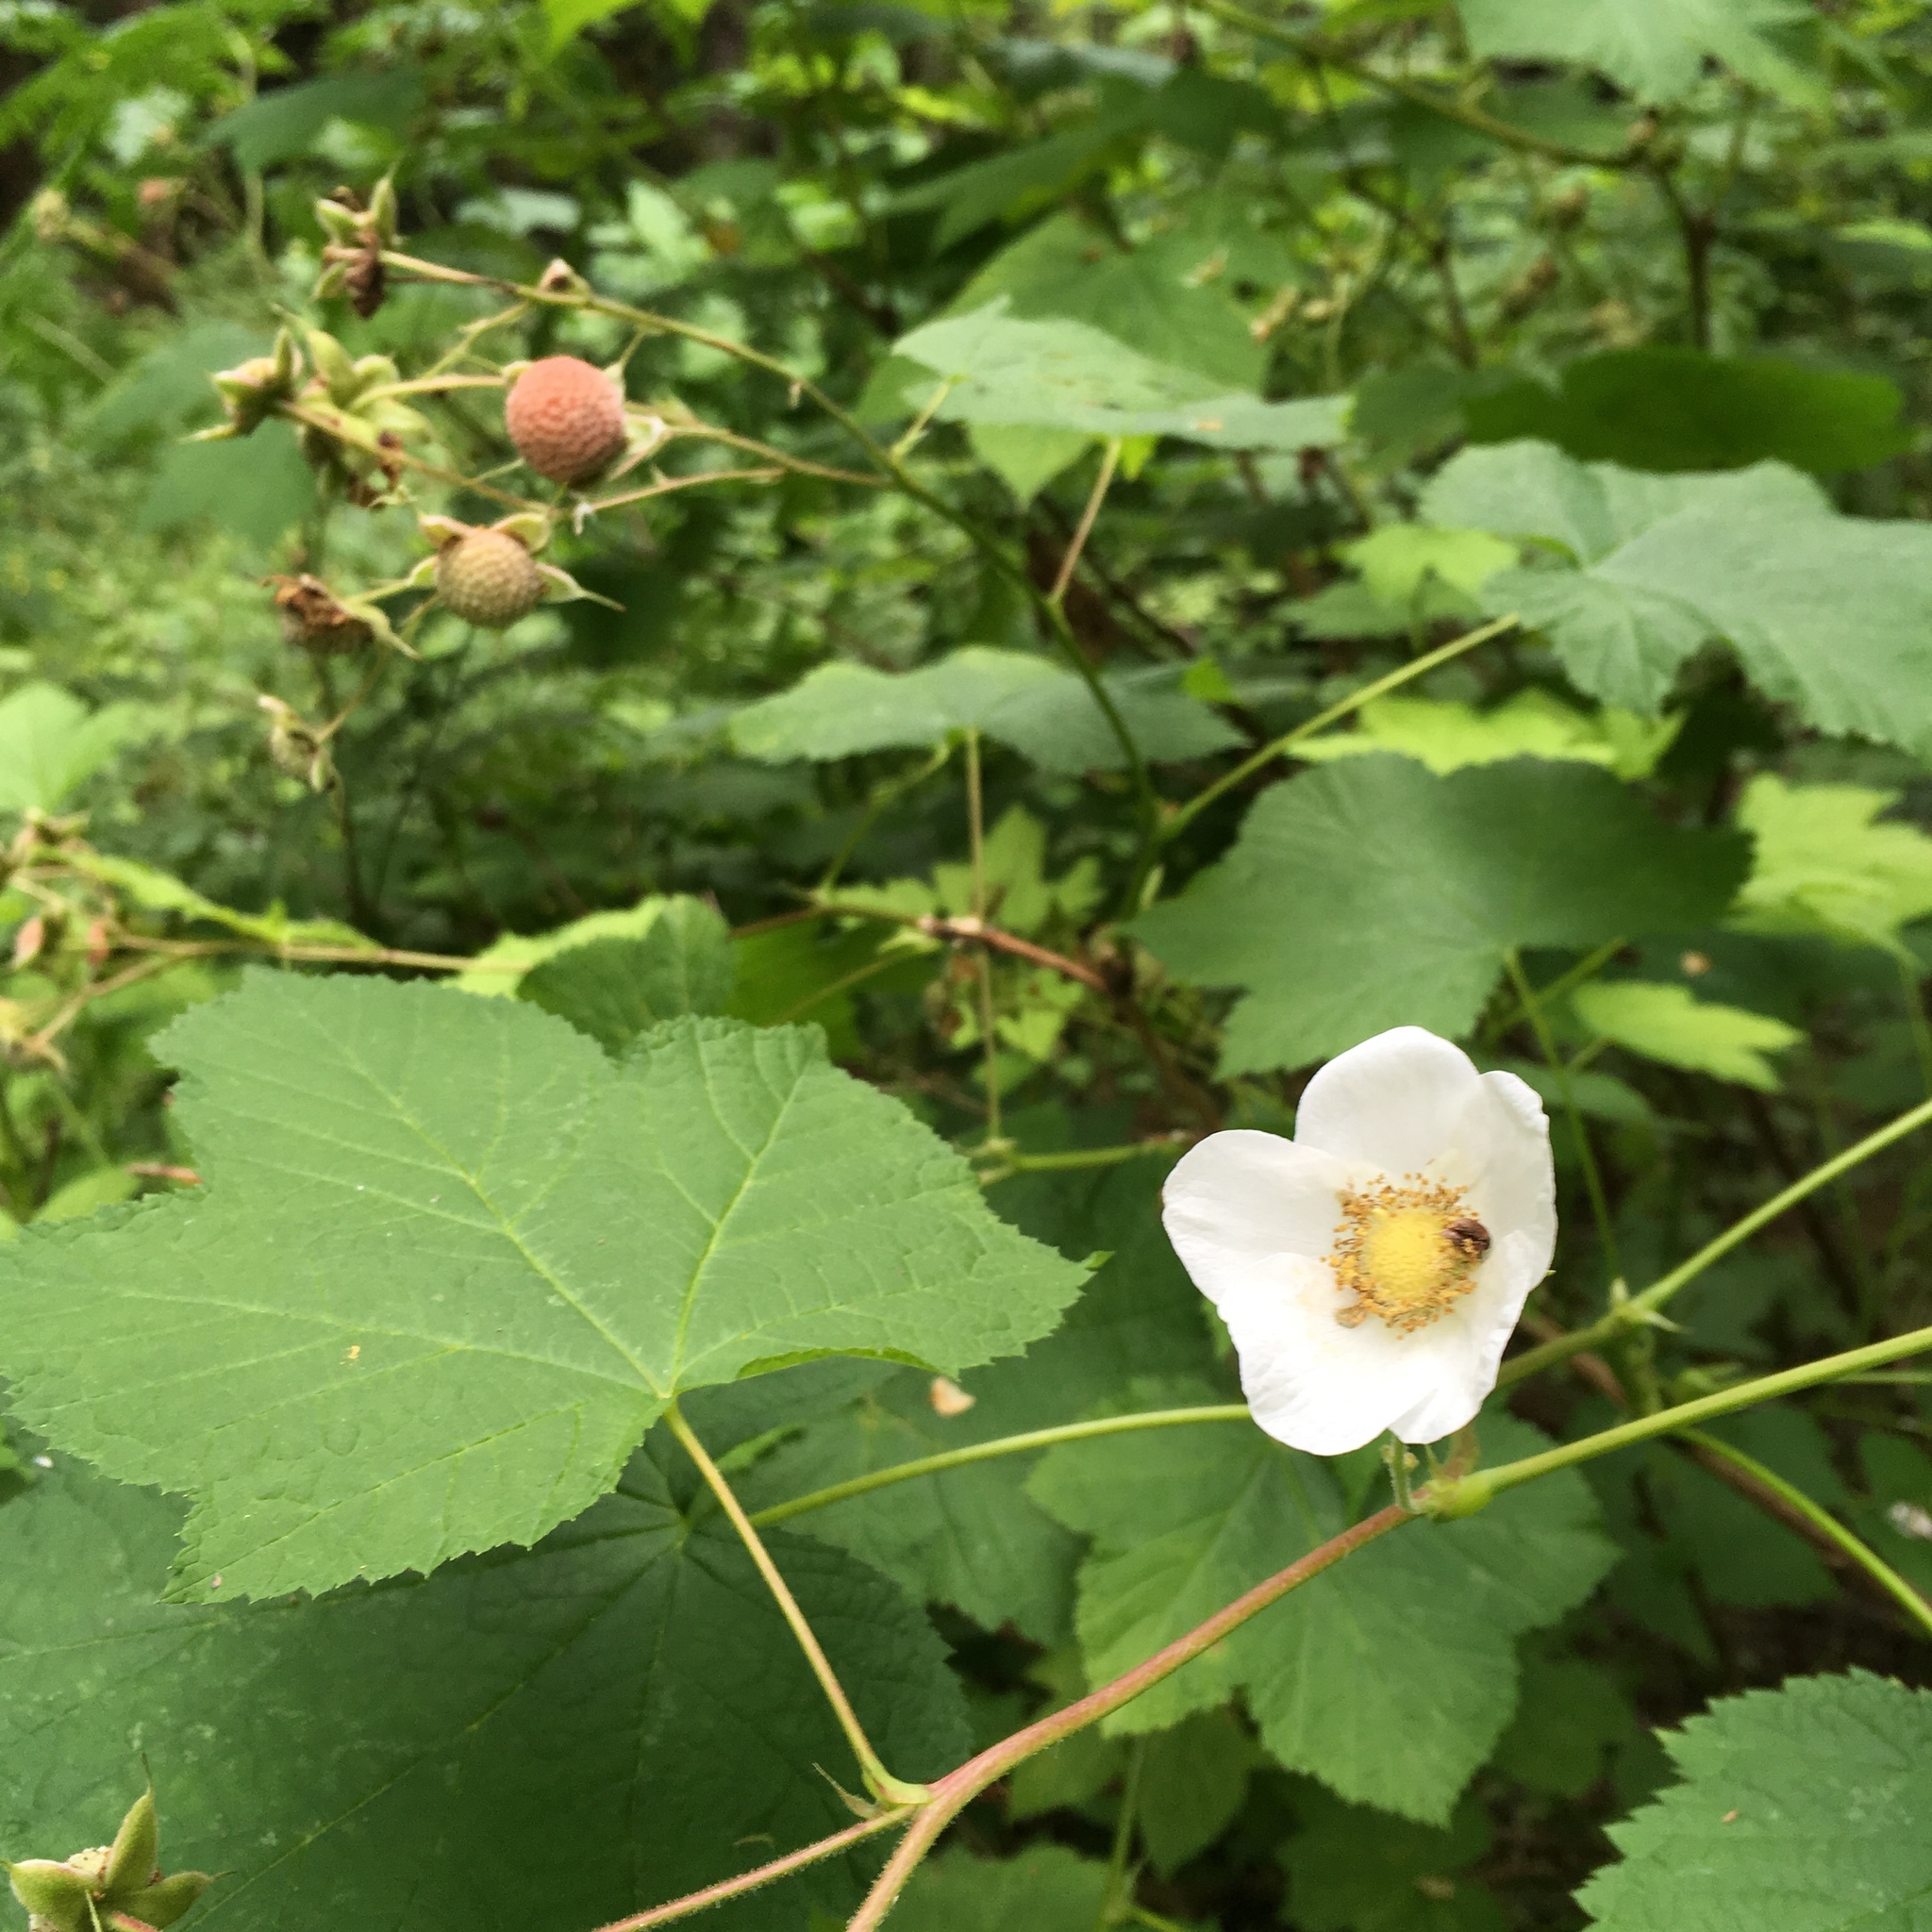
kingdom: Plantae
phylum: Tracheophyta
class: Magnoliopsida
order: Rosales
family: Rosaceae
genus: Rubus
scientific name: Rubus parviflorus
